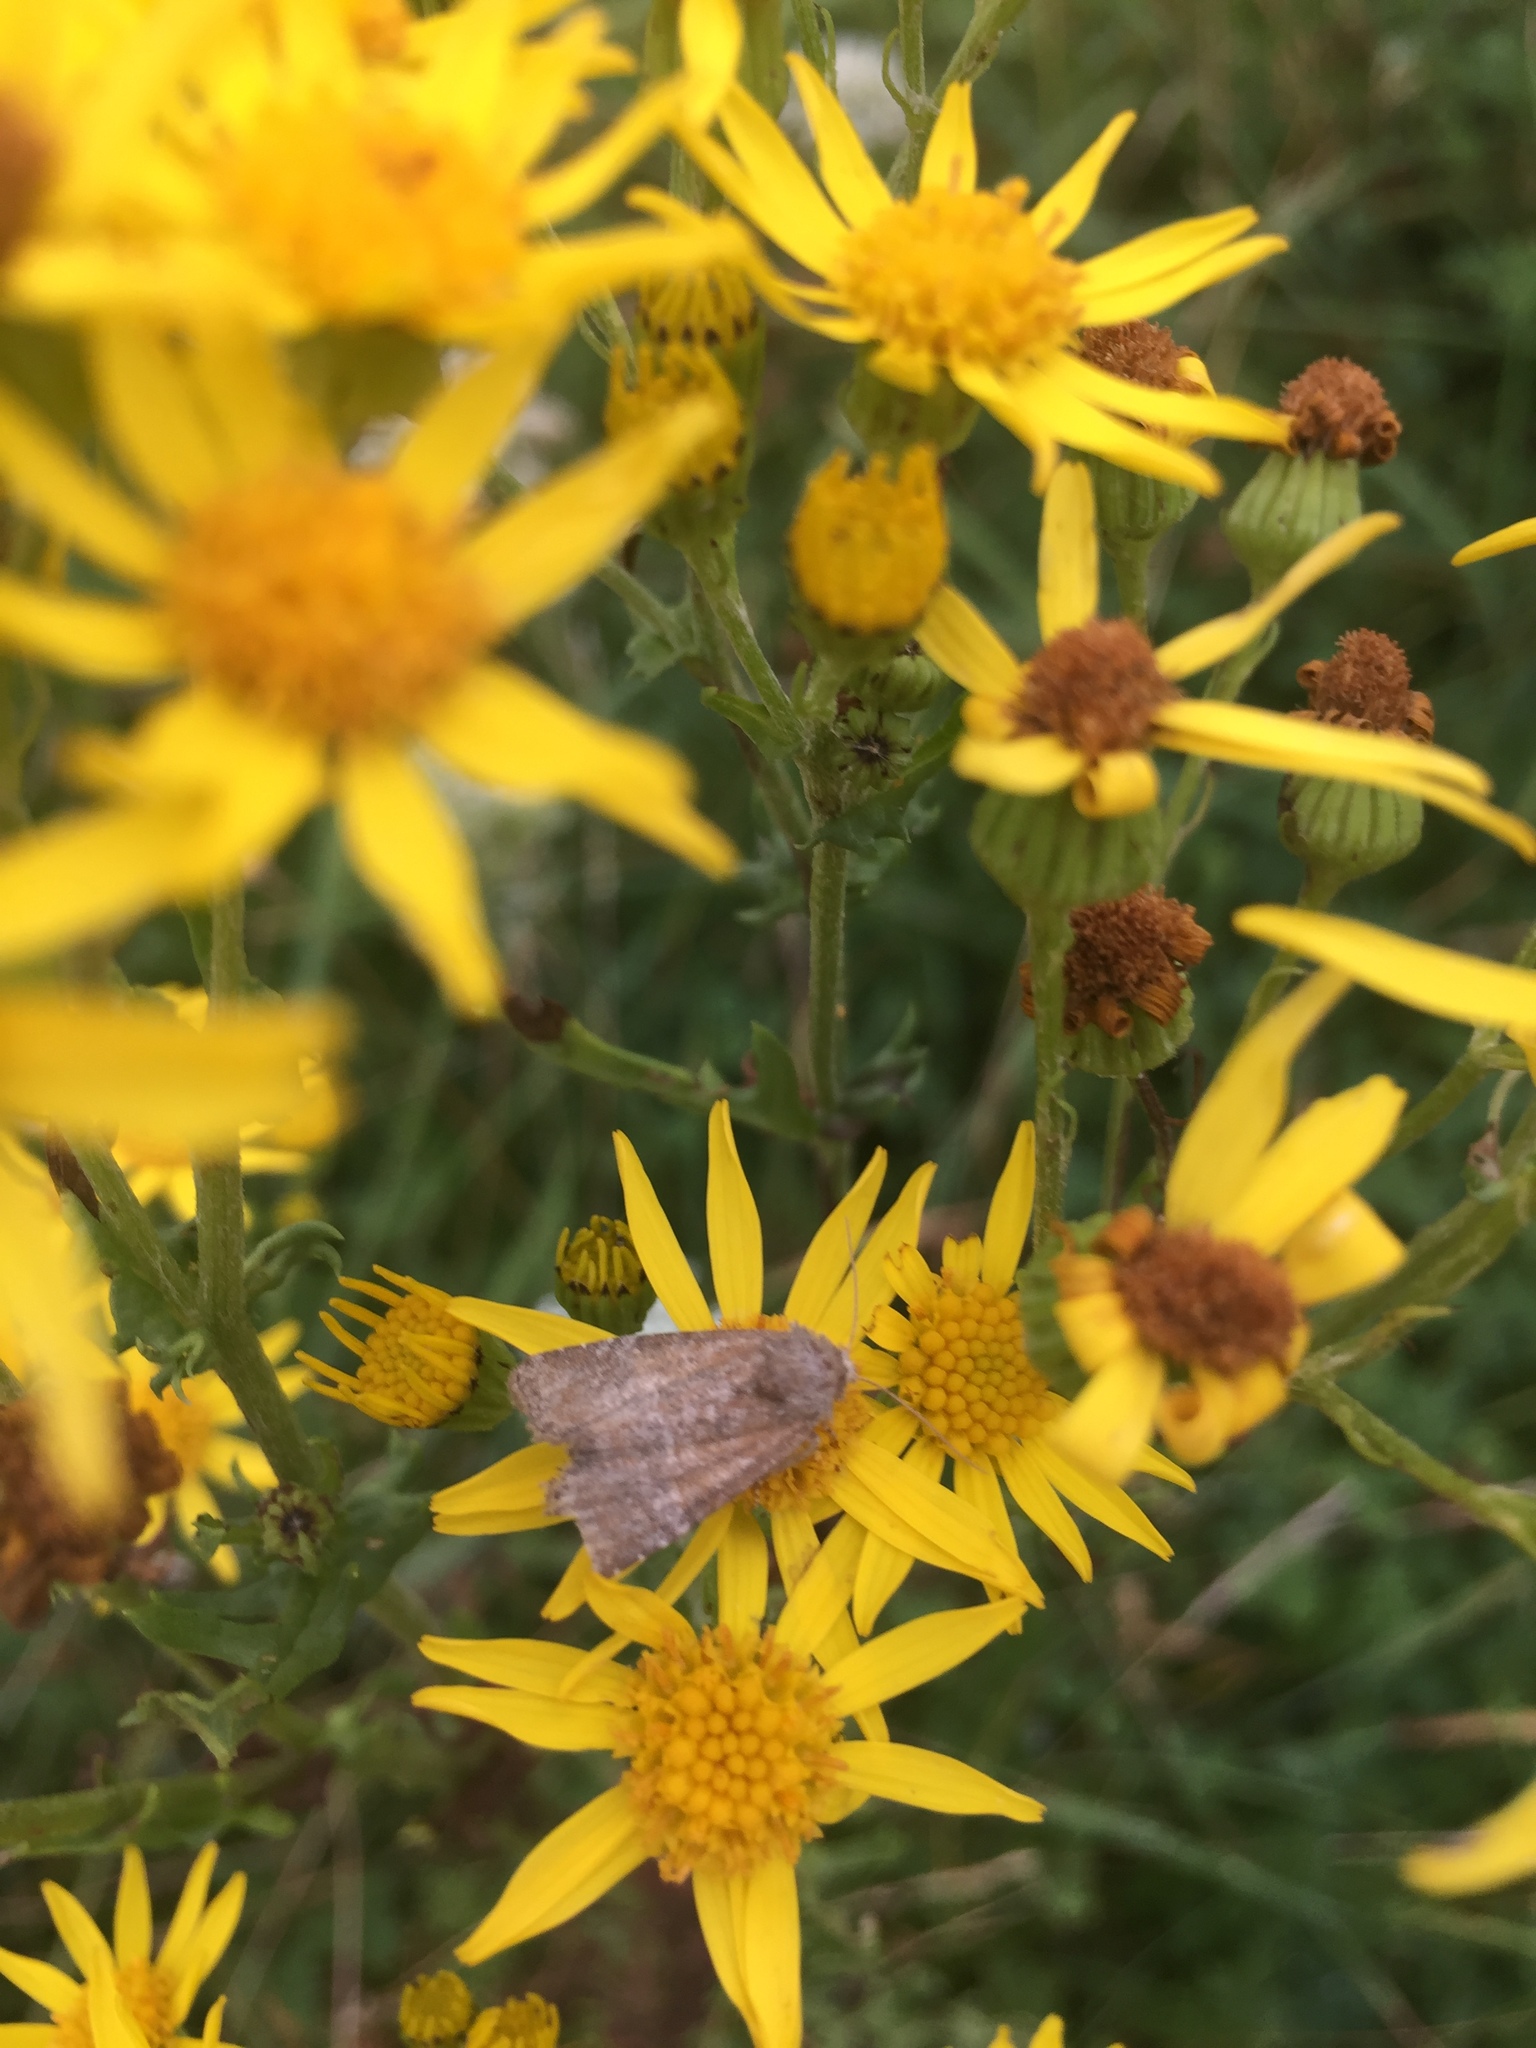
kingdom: Animalia
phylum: Arthropoda
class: Insecta
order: Lepidoptera
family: Noctuidae
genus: Mesoligia
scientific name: Mesoligia furuncula
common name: Cloaked minor
